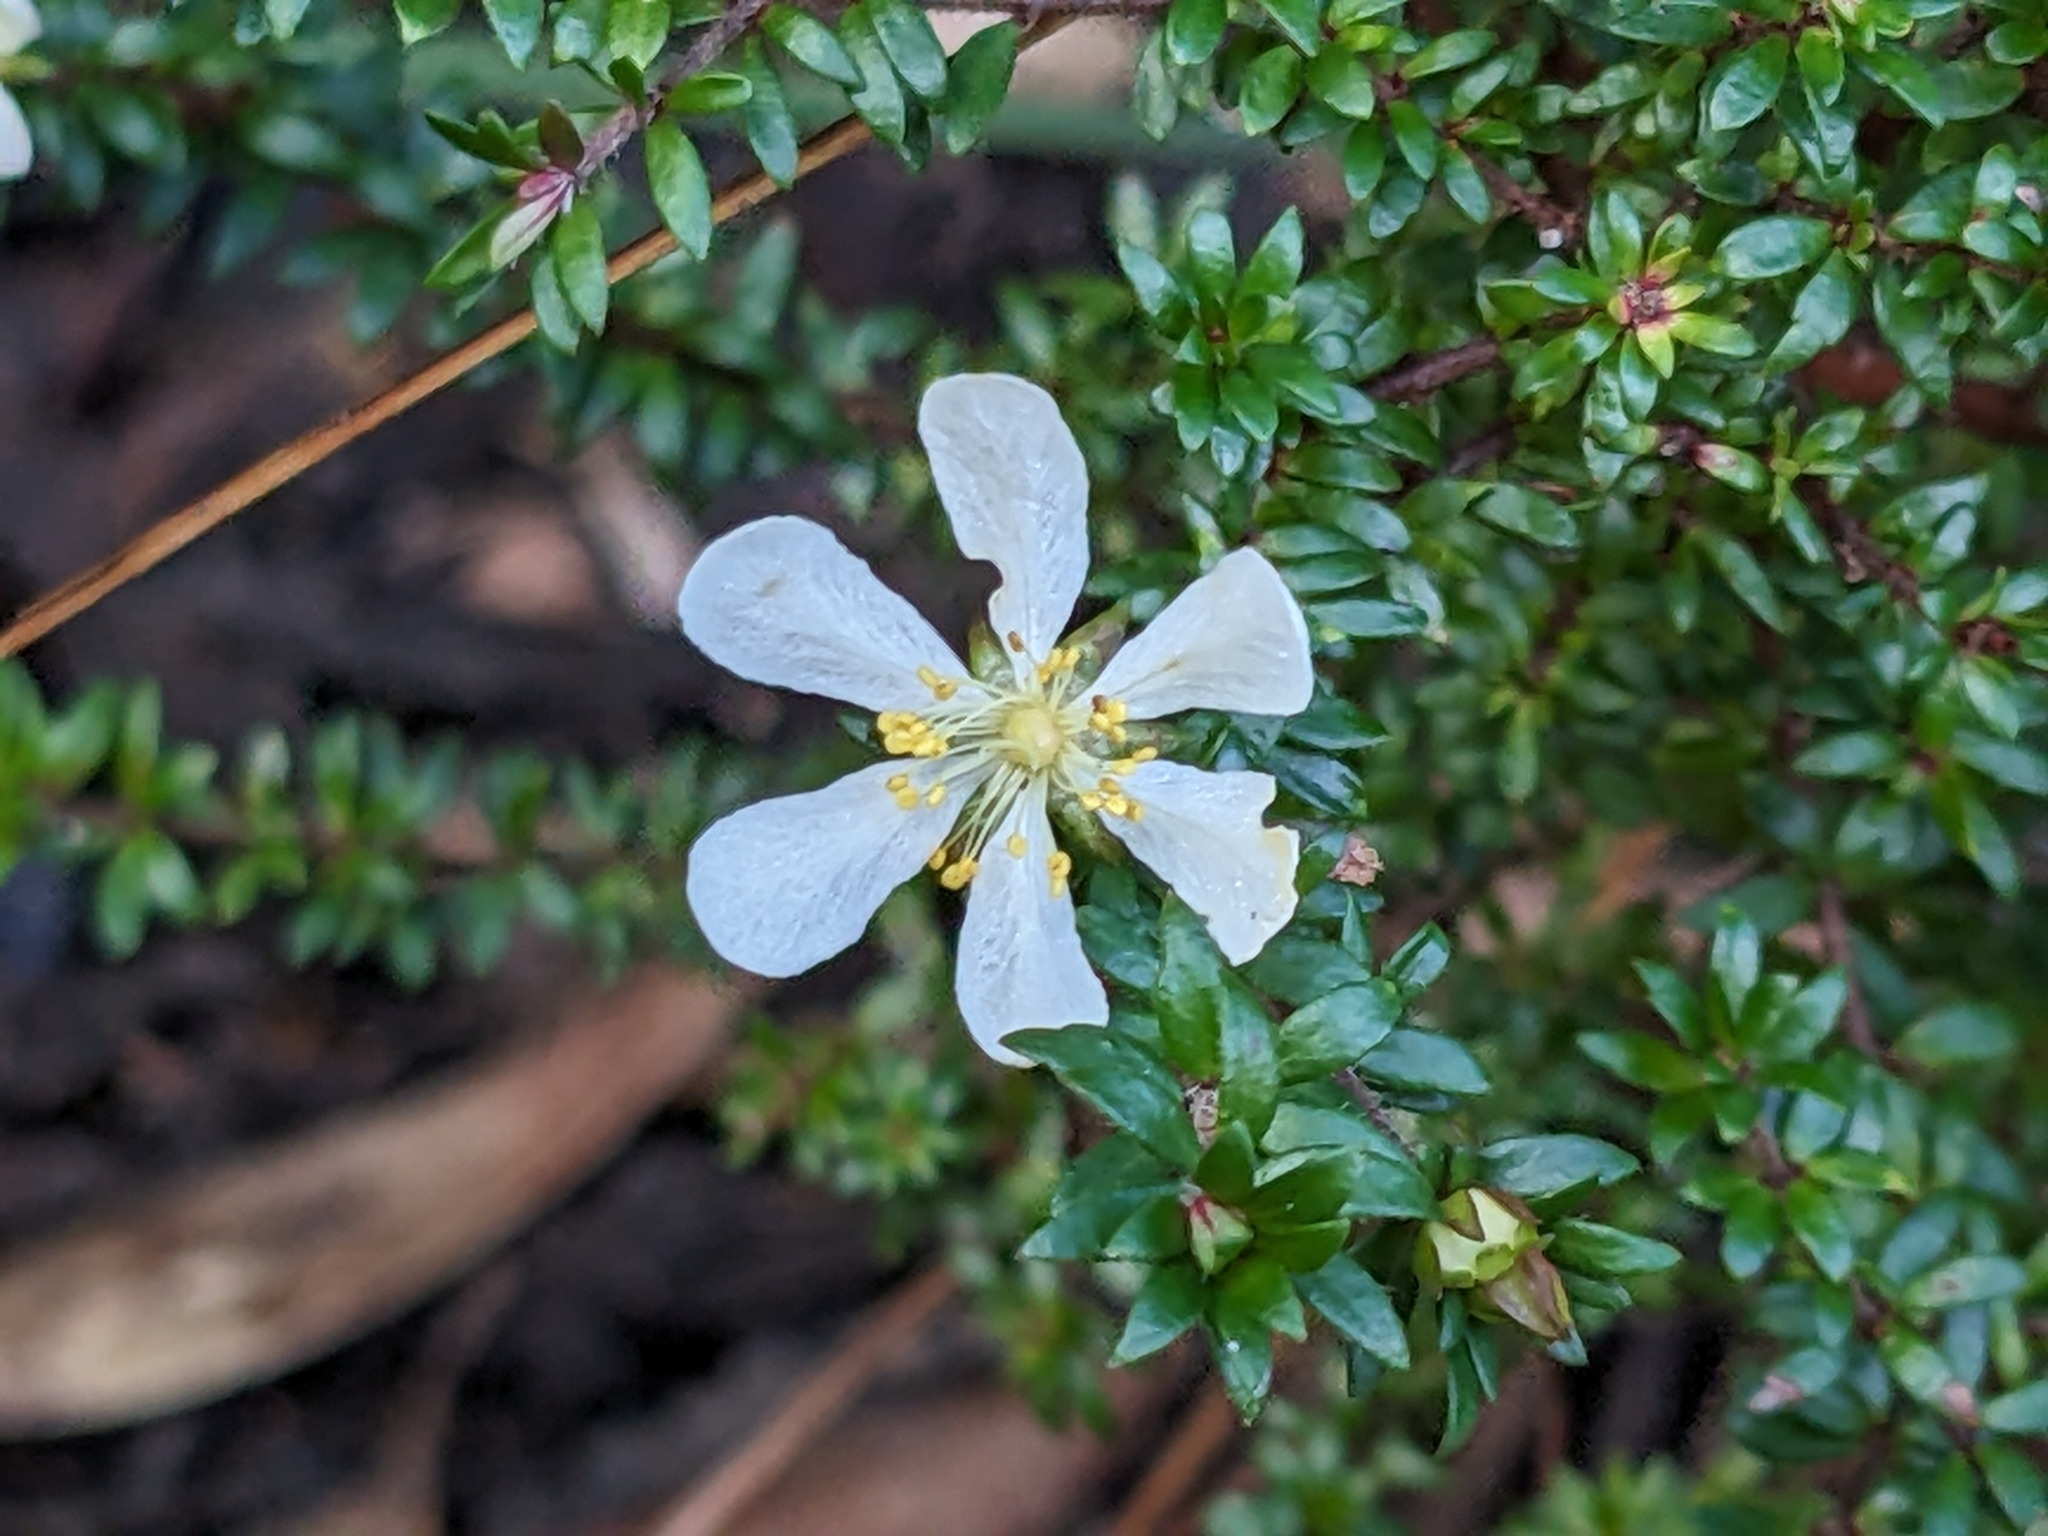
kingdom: Plantae
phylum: Tracheophyta
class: Magnoliopsida
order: Oxalidales
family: Cunoniaceae
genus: Bauera
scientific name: Bauera rubioides
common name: River-rose
